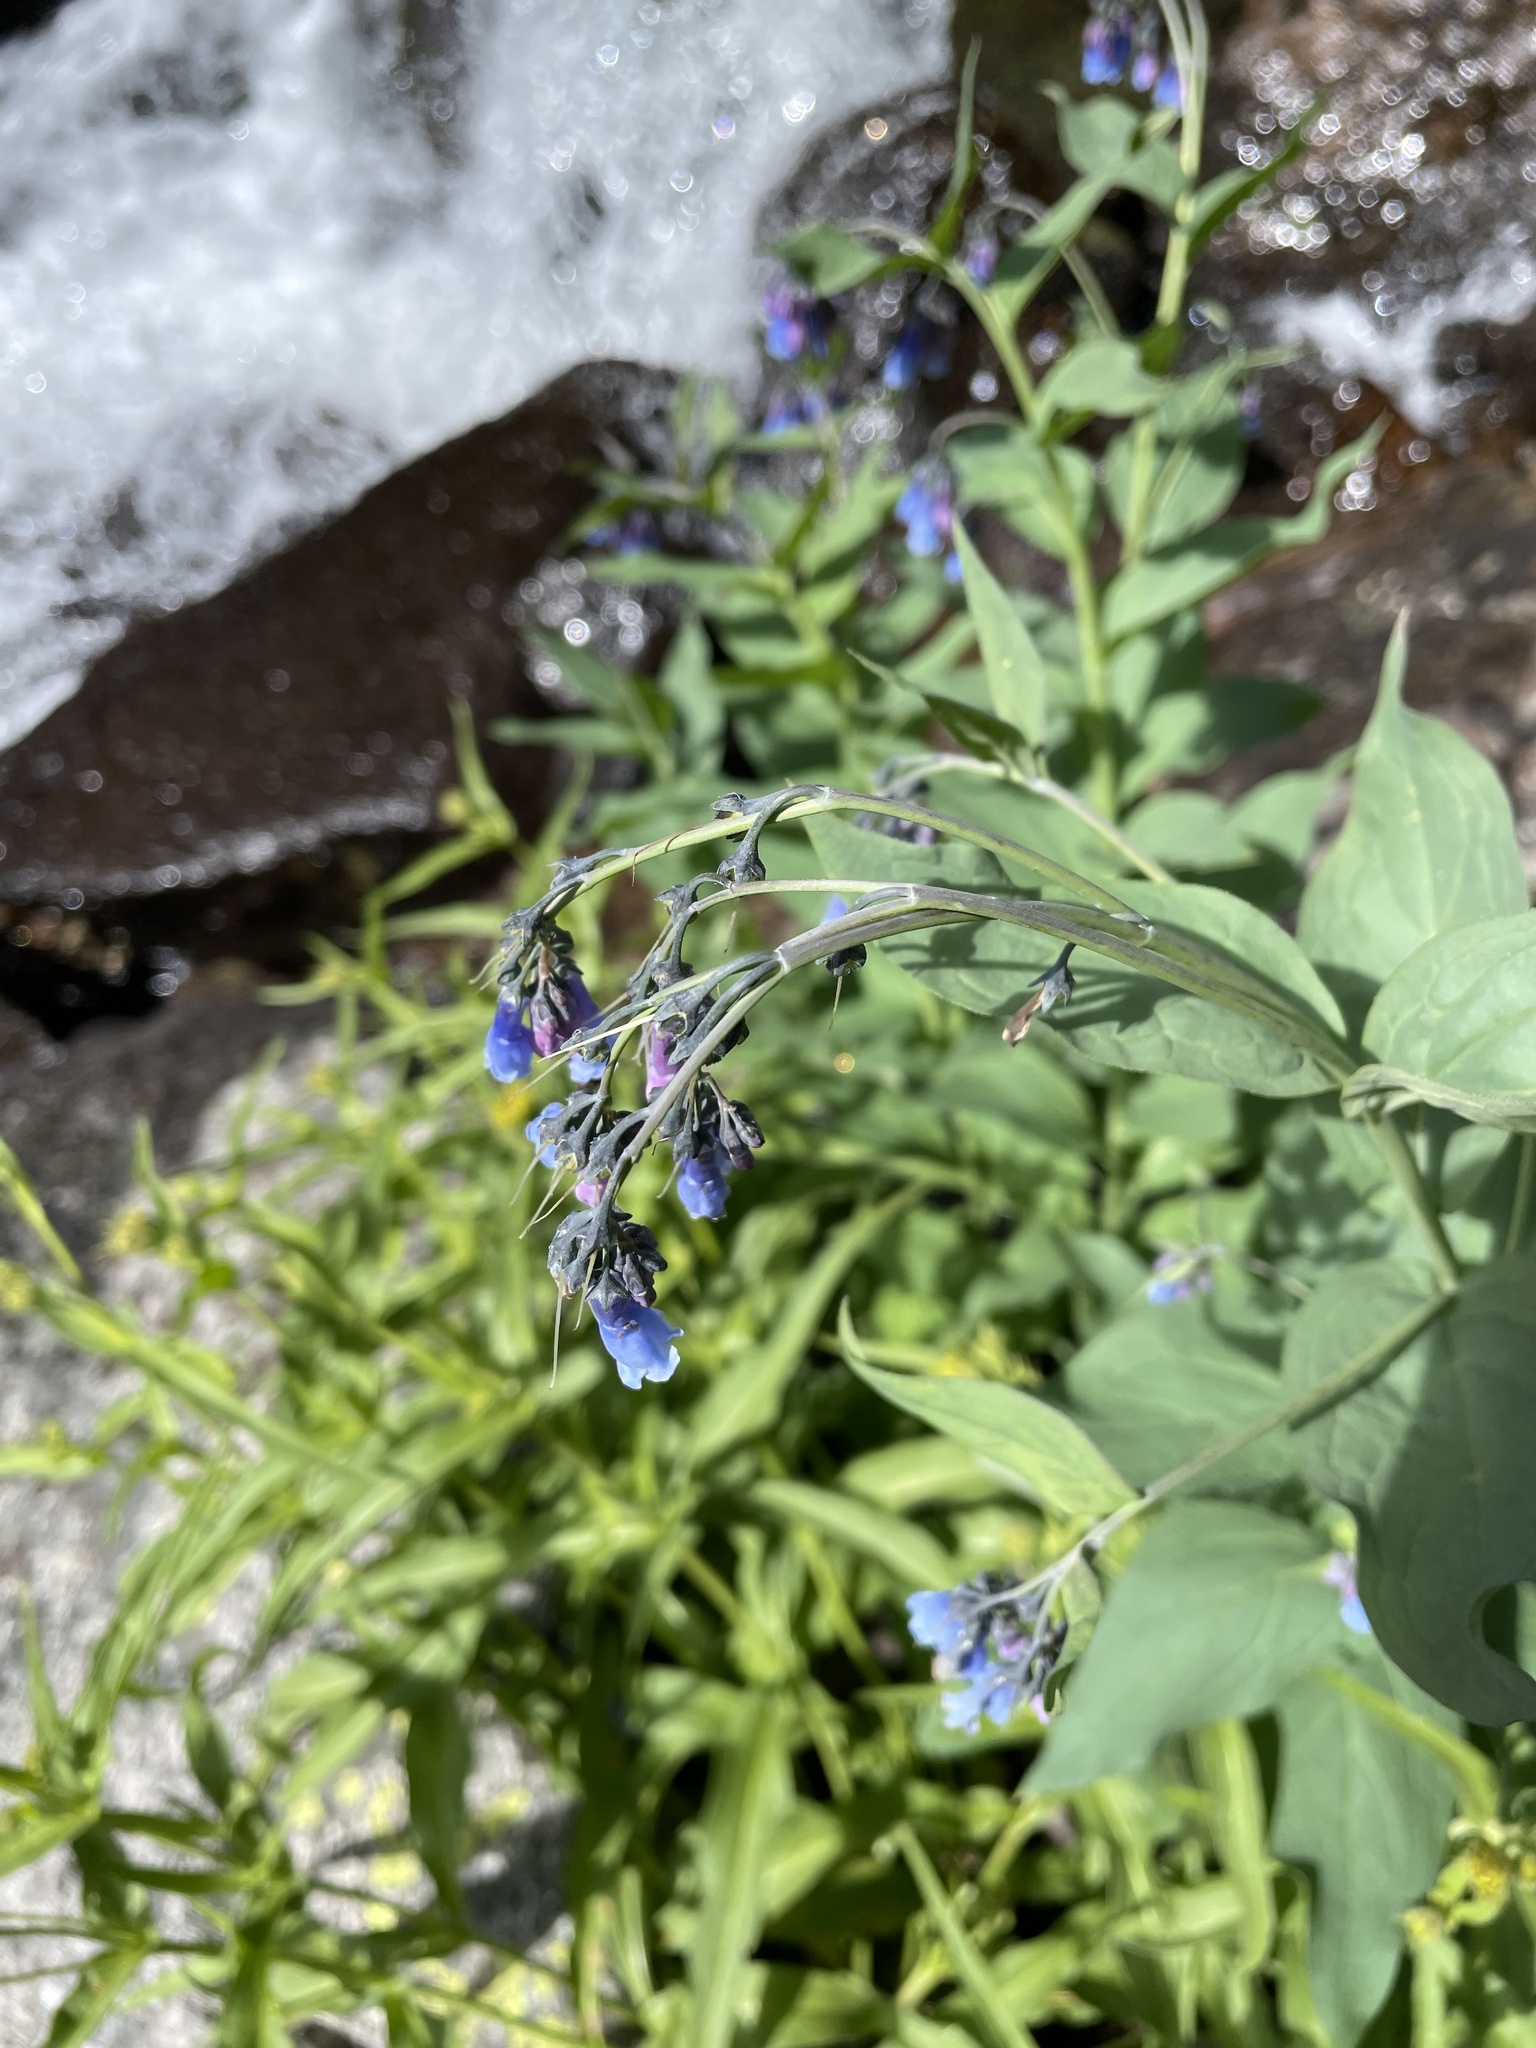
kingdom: Plantae
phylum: Tracheophyta
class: Magnoliopsida
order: Boraginales
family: Boraginaceae
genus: Mertensia
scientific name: Mertensia ciliata
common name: Tall chiming-bells
